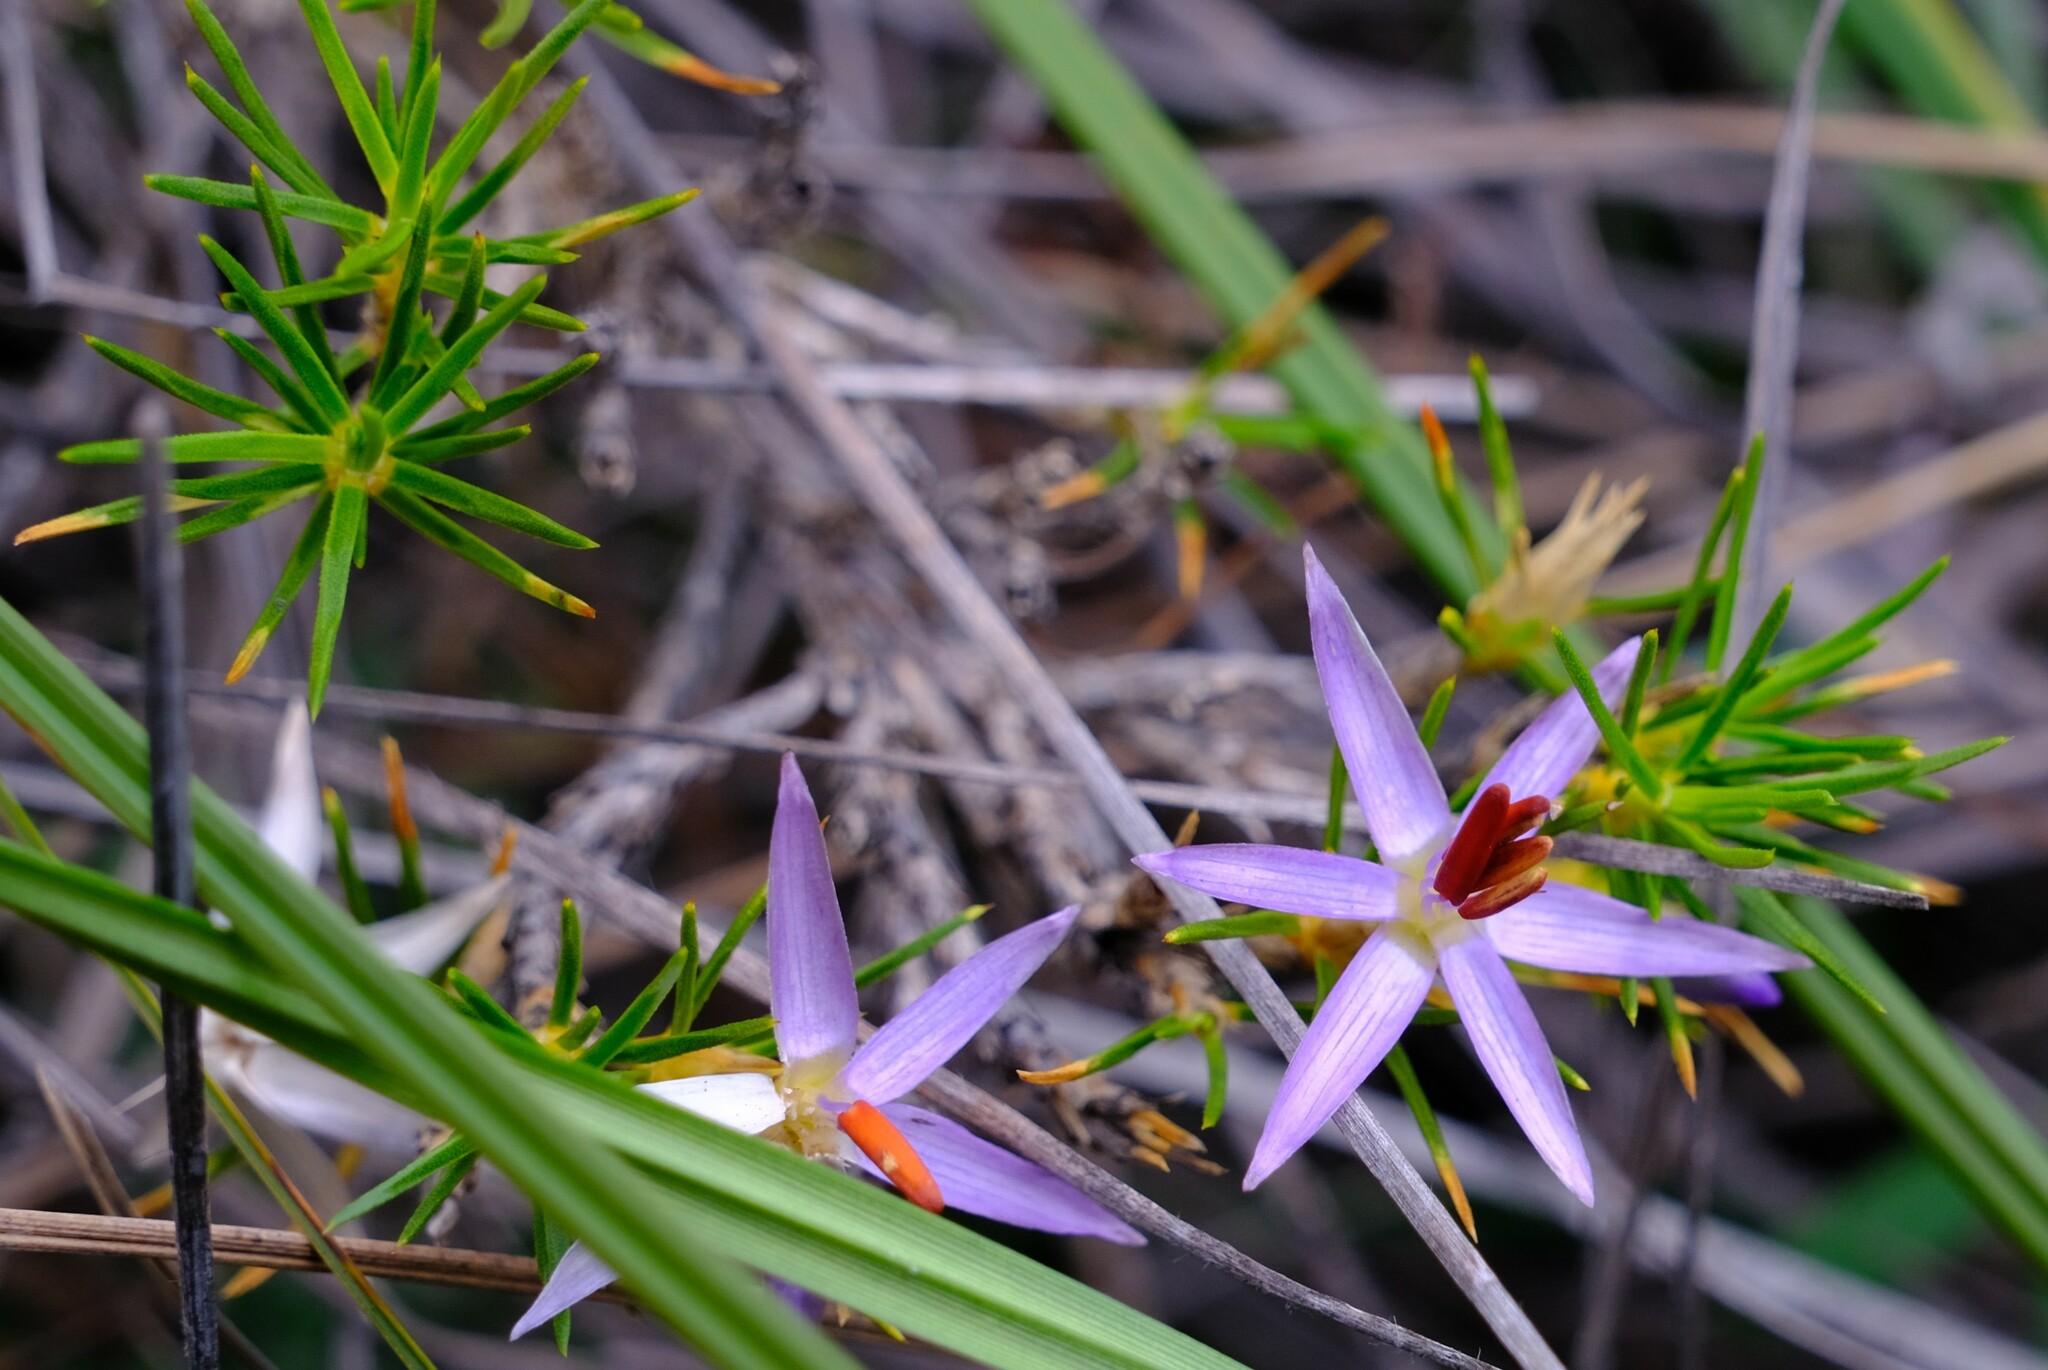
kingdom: Plantae
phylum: Tracheophyta
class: Liliopsida
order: Arecales
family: Dasypogonaceae
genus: Calectasia
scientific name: Calectasia narragara
